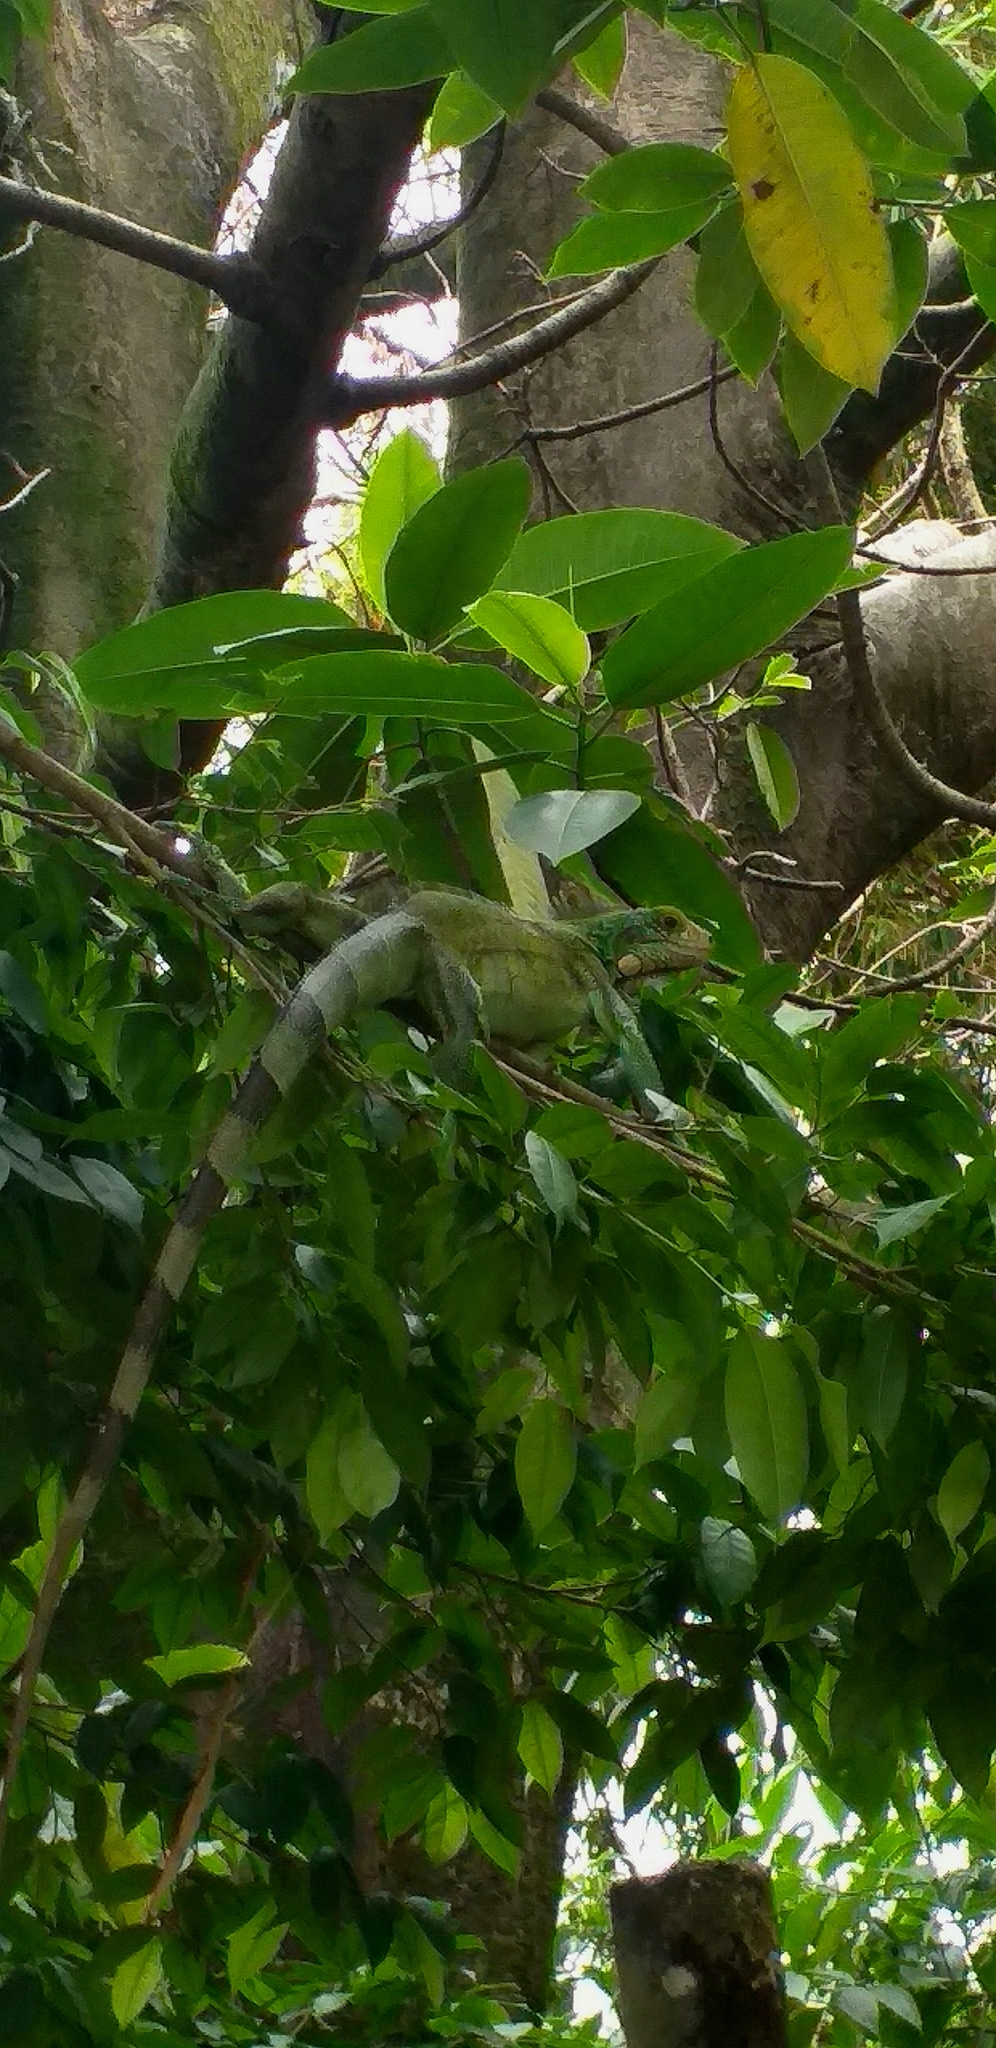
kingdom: Animalia
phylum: Chordata
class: Squamata
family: Iguanidae
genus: Iguana
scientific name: Iguana iguana
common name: Green iguana
